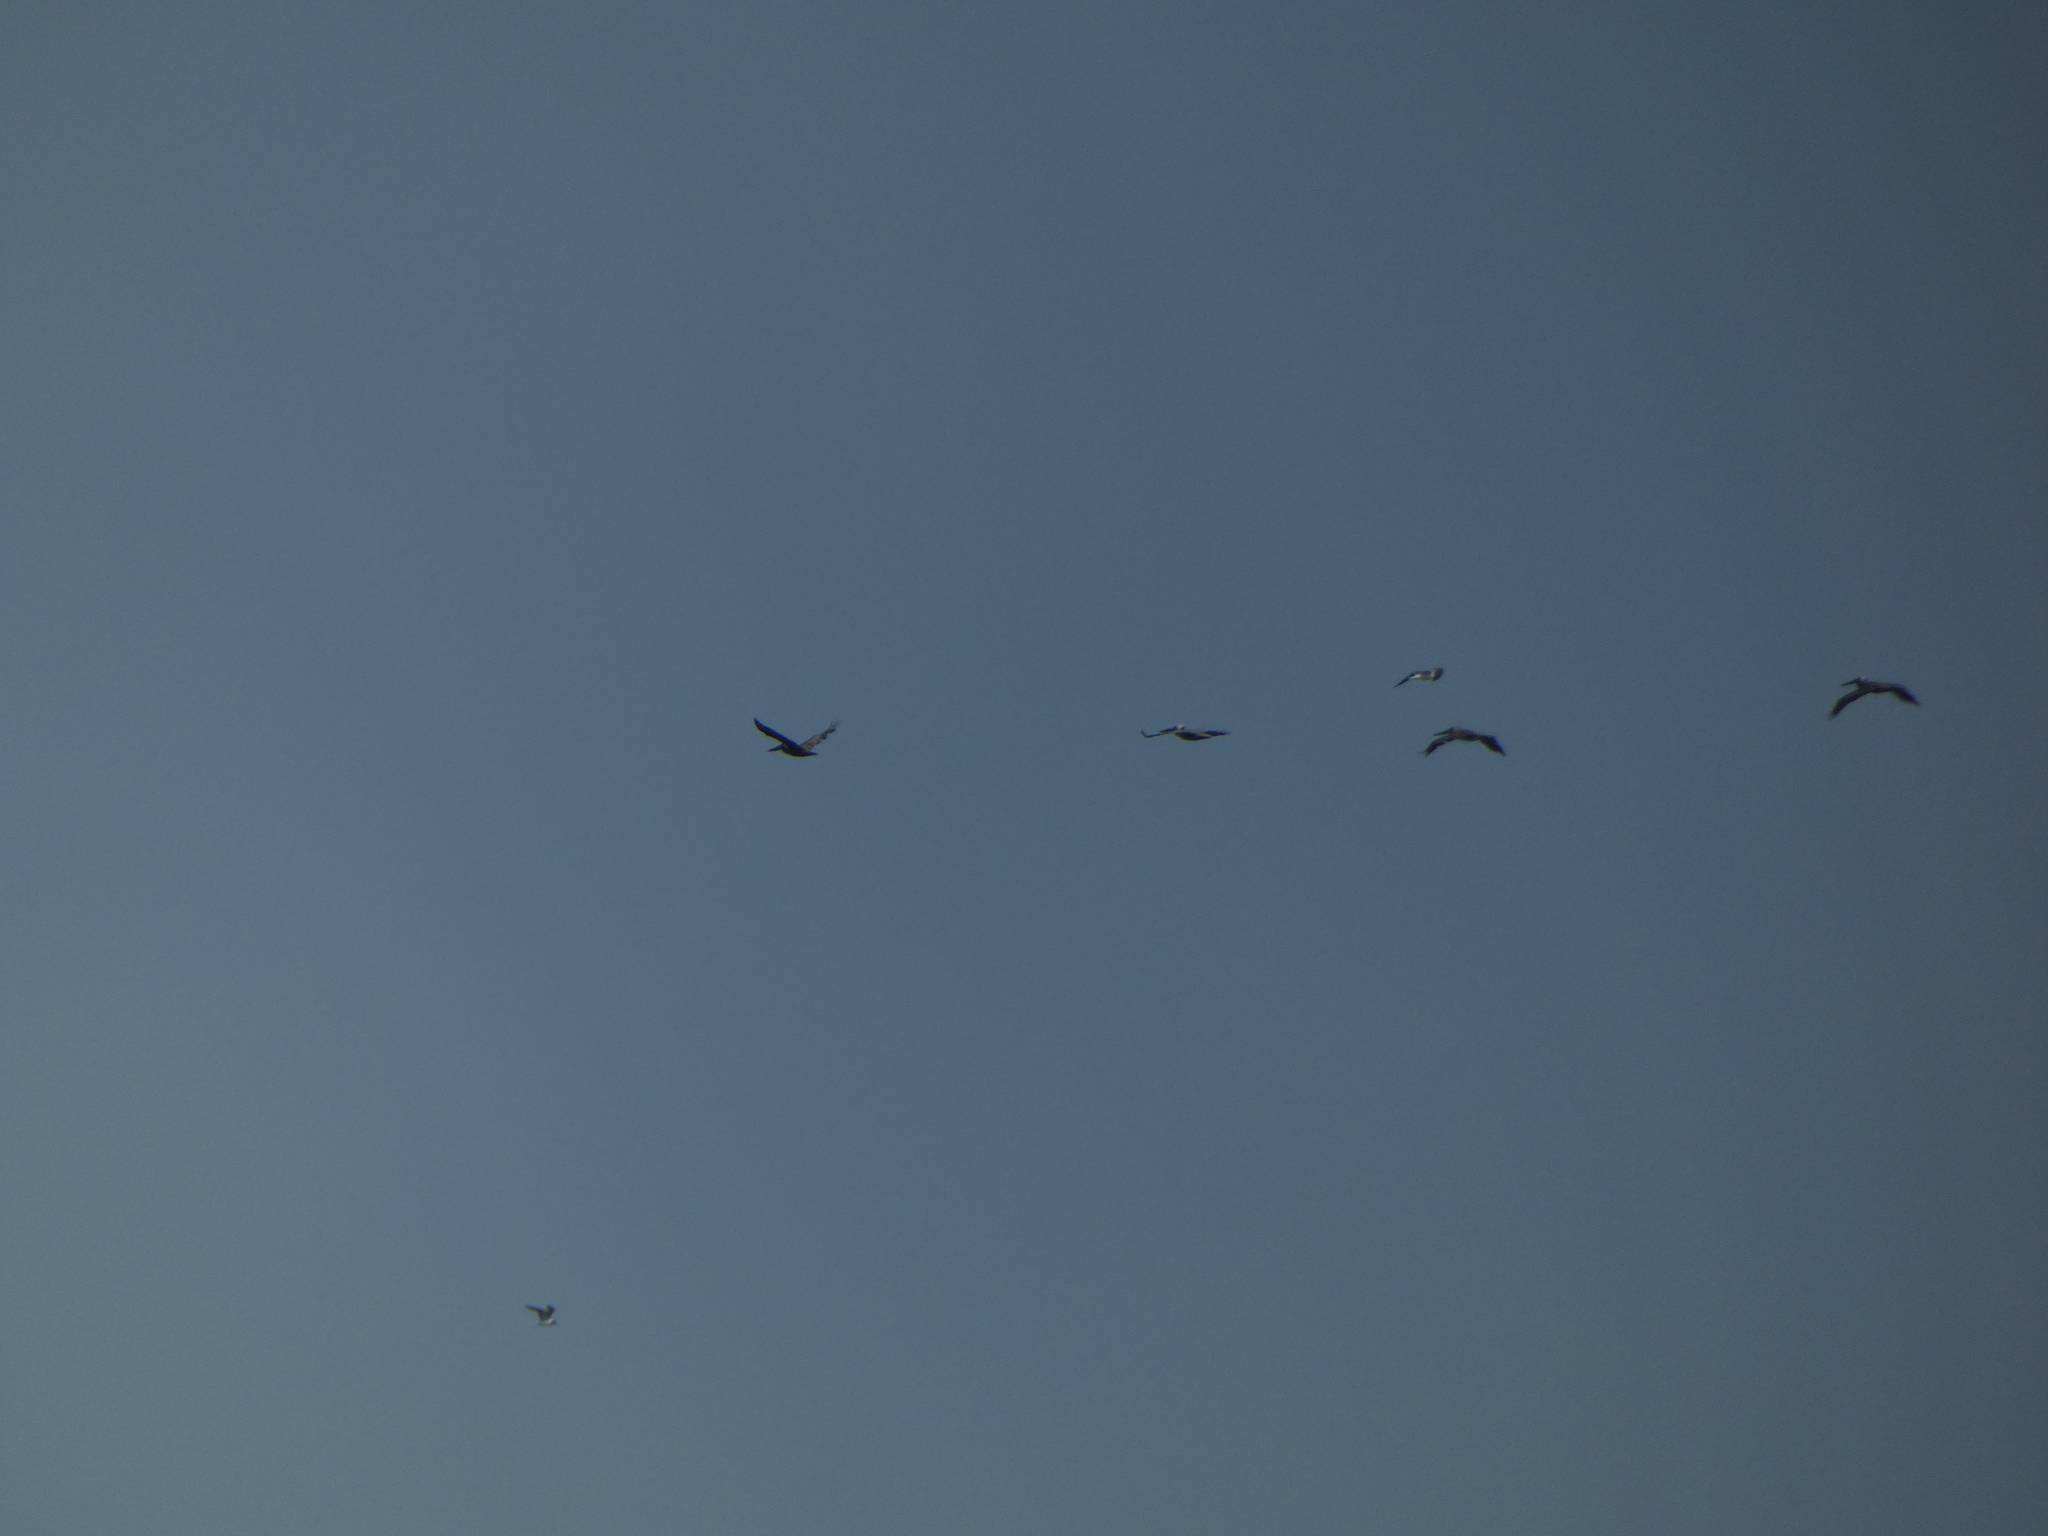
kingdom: Animalia
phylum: Chordata
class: Aves
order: Pelecaniformes
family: Pelecanidae
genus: Pelecanus
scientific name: Pelecanus occidentalis
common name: Brown pelican
